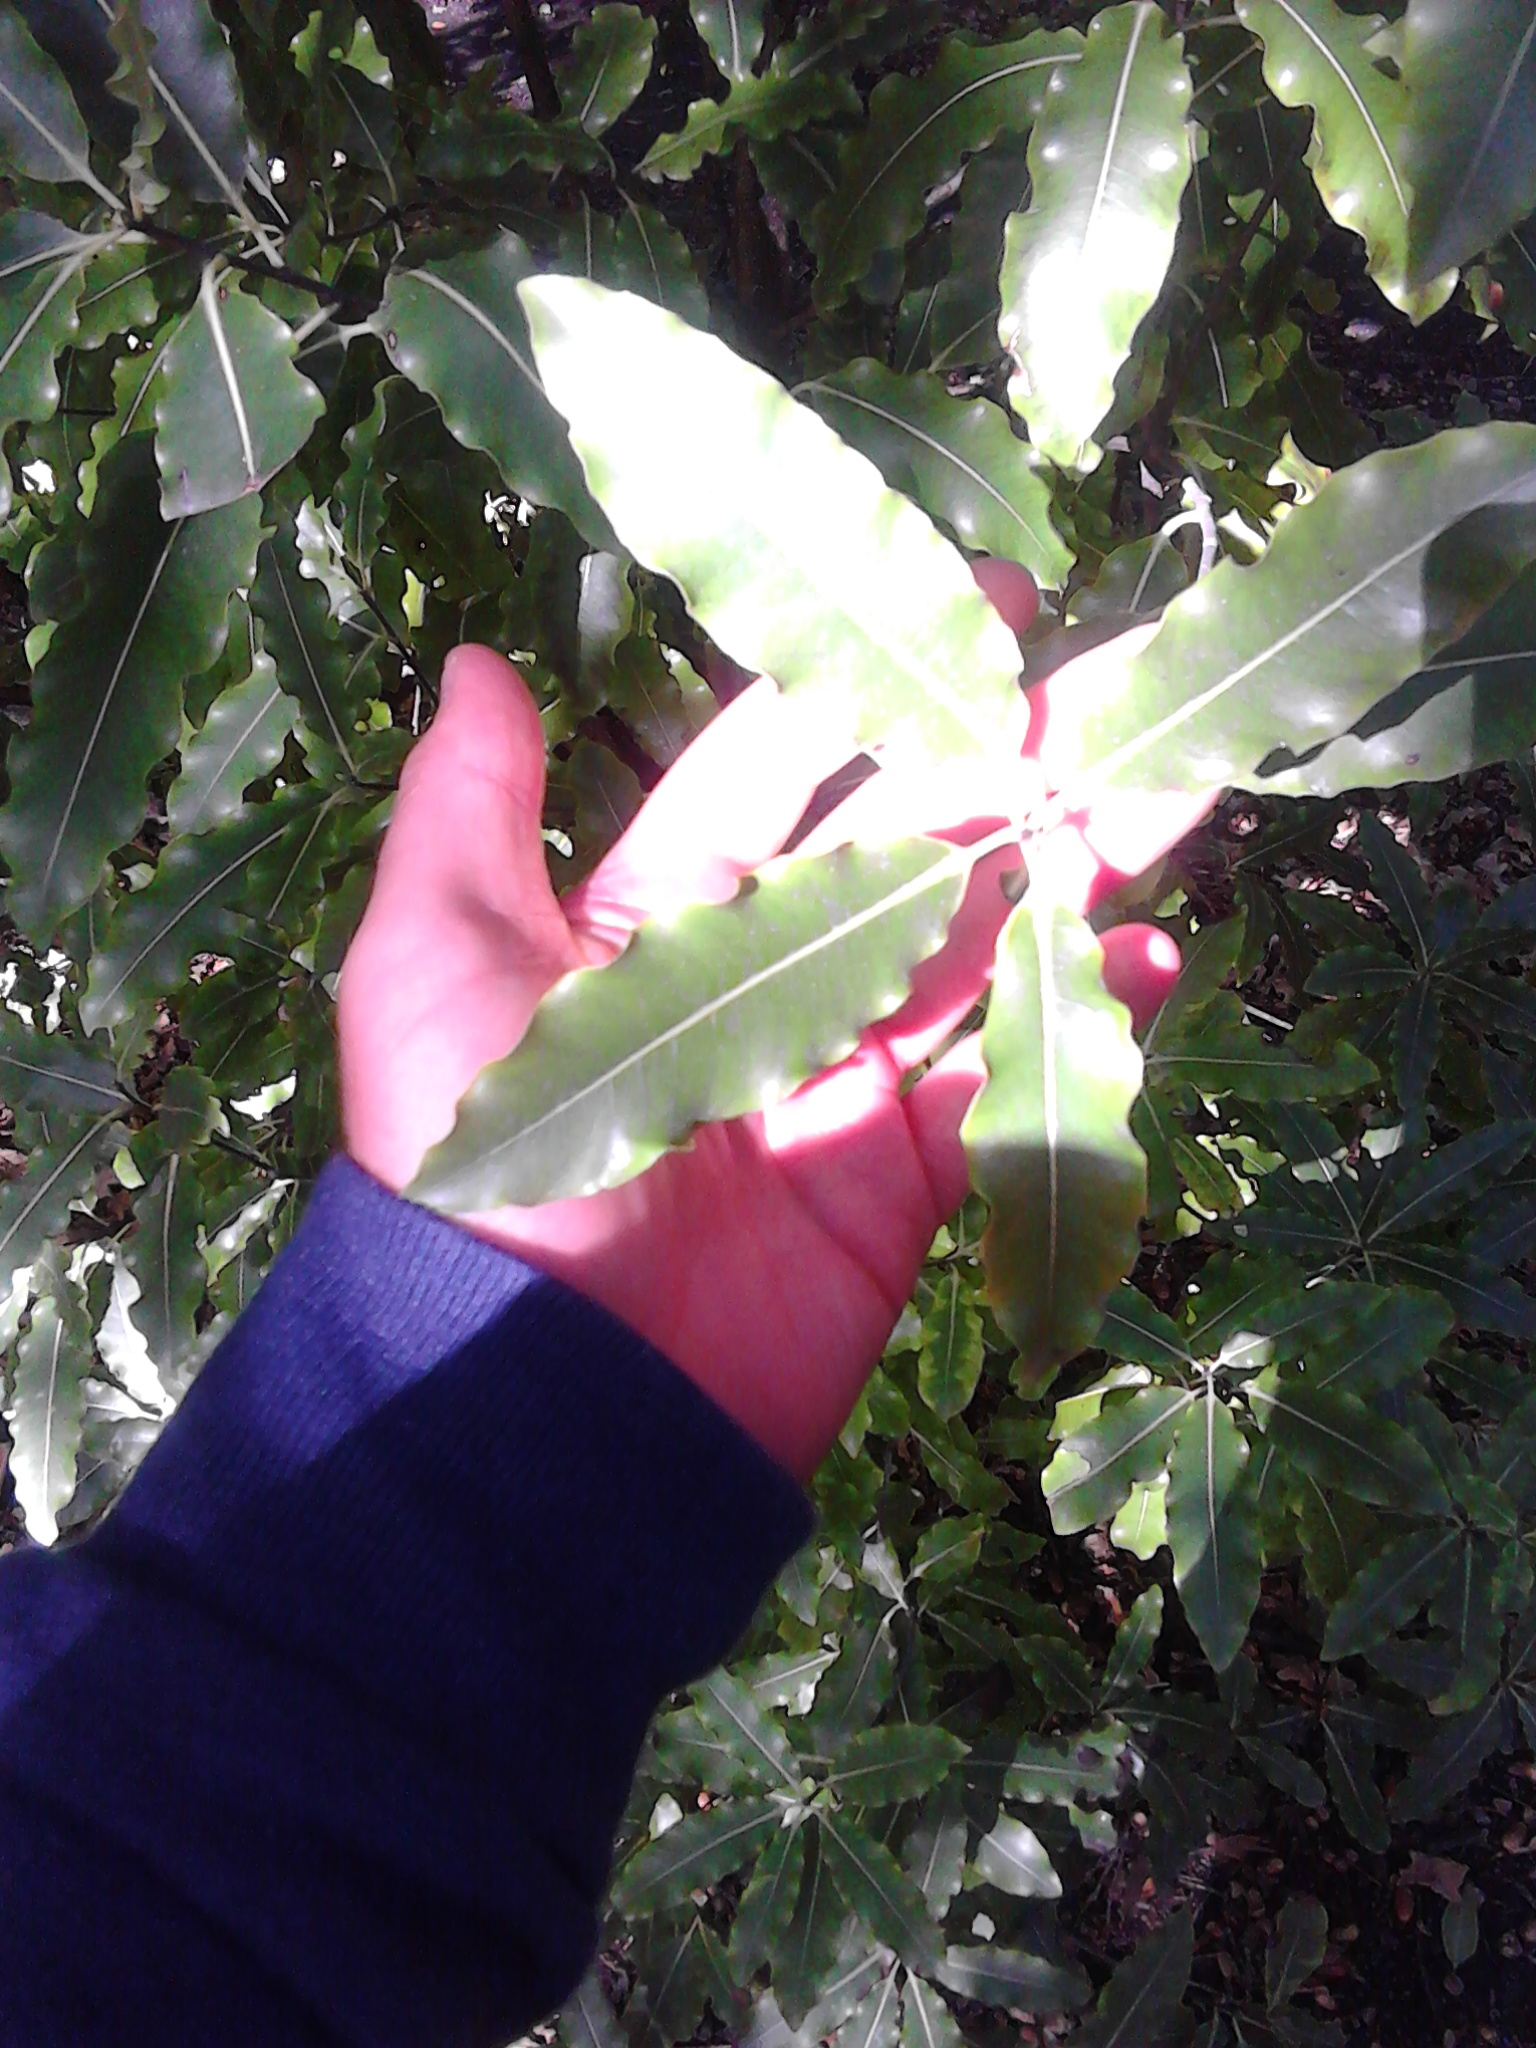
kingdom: Plantae
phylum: Tracheophyta
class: Magnoliopsida
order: Apiales
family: Pittosporaceae
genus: Pittosporum
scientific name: Pittosporum eugenioides
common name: Lemonwood
